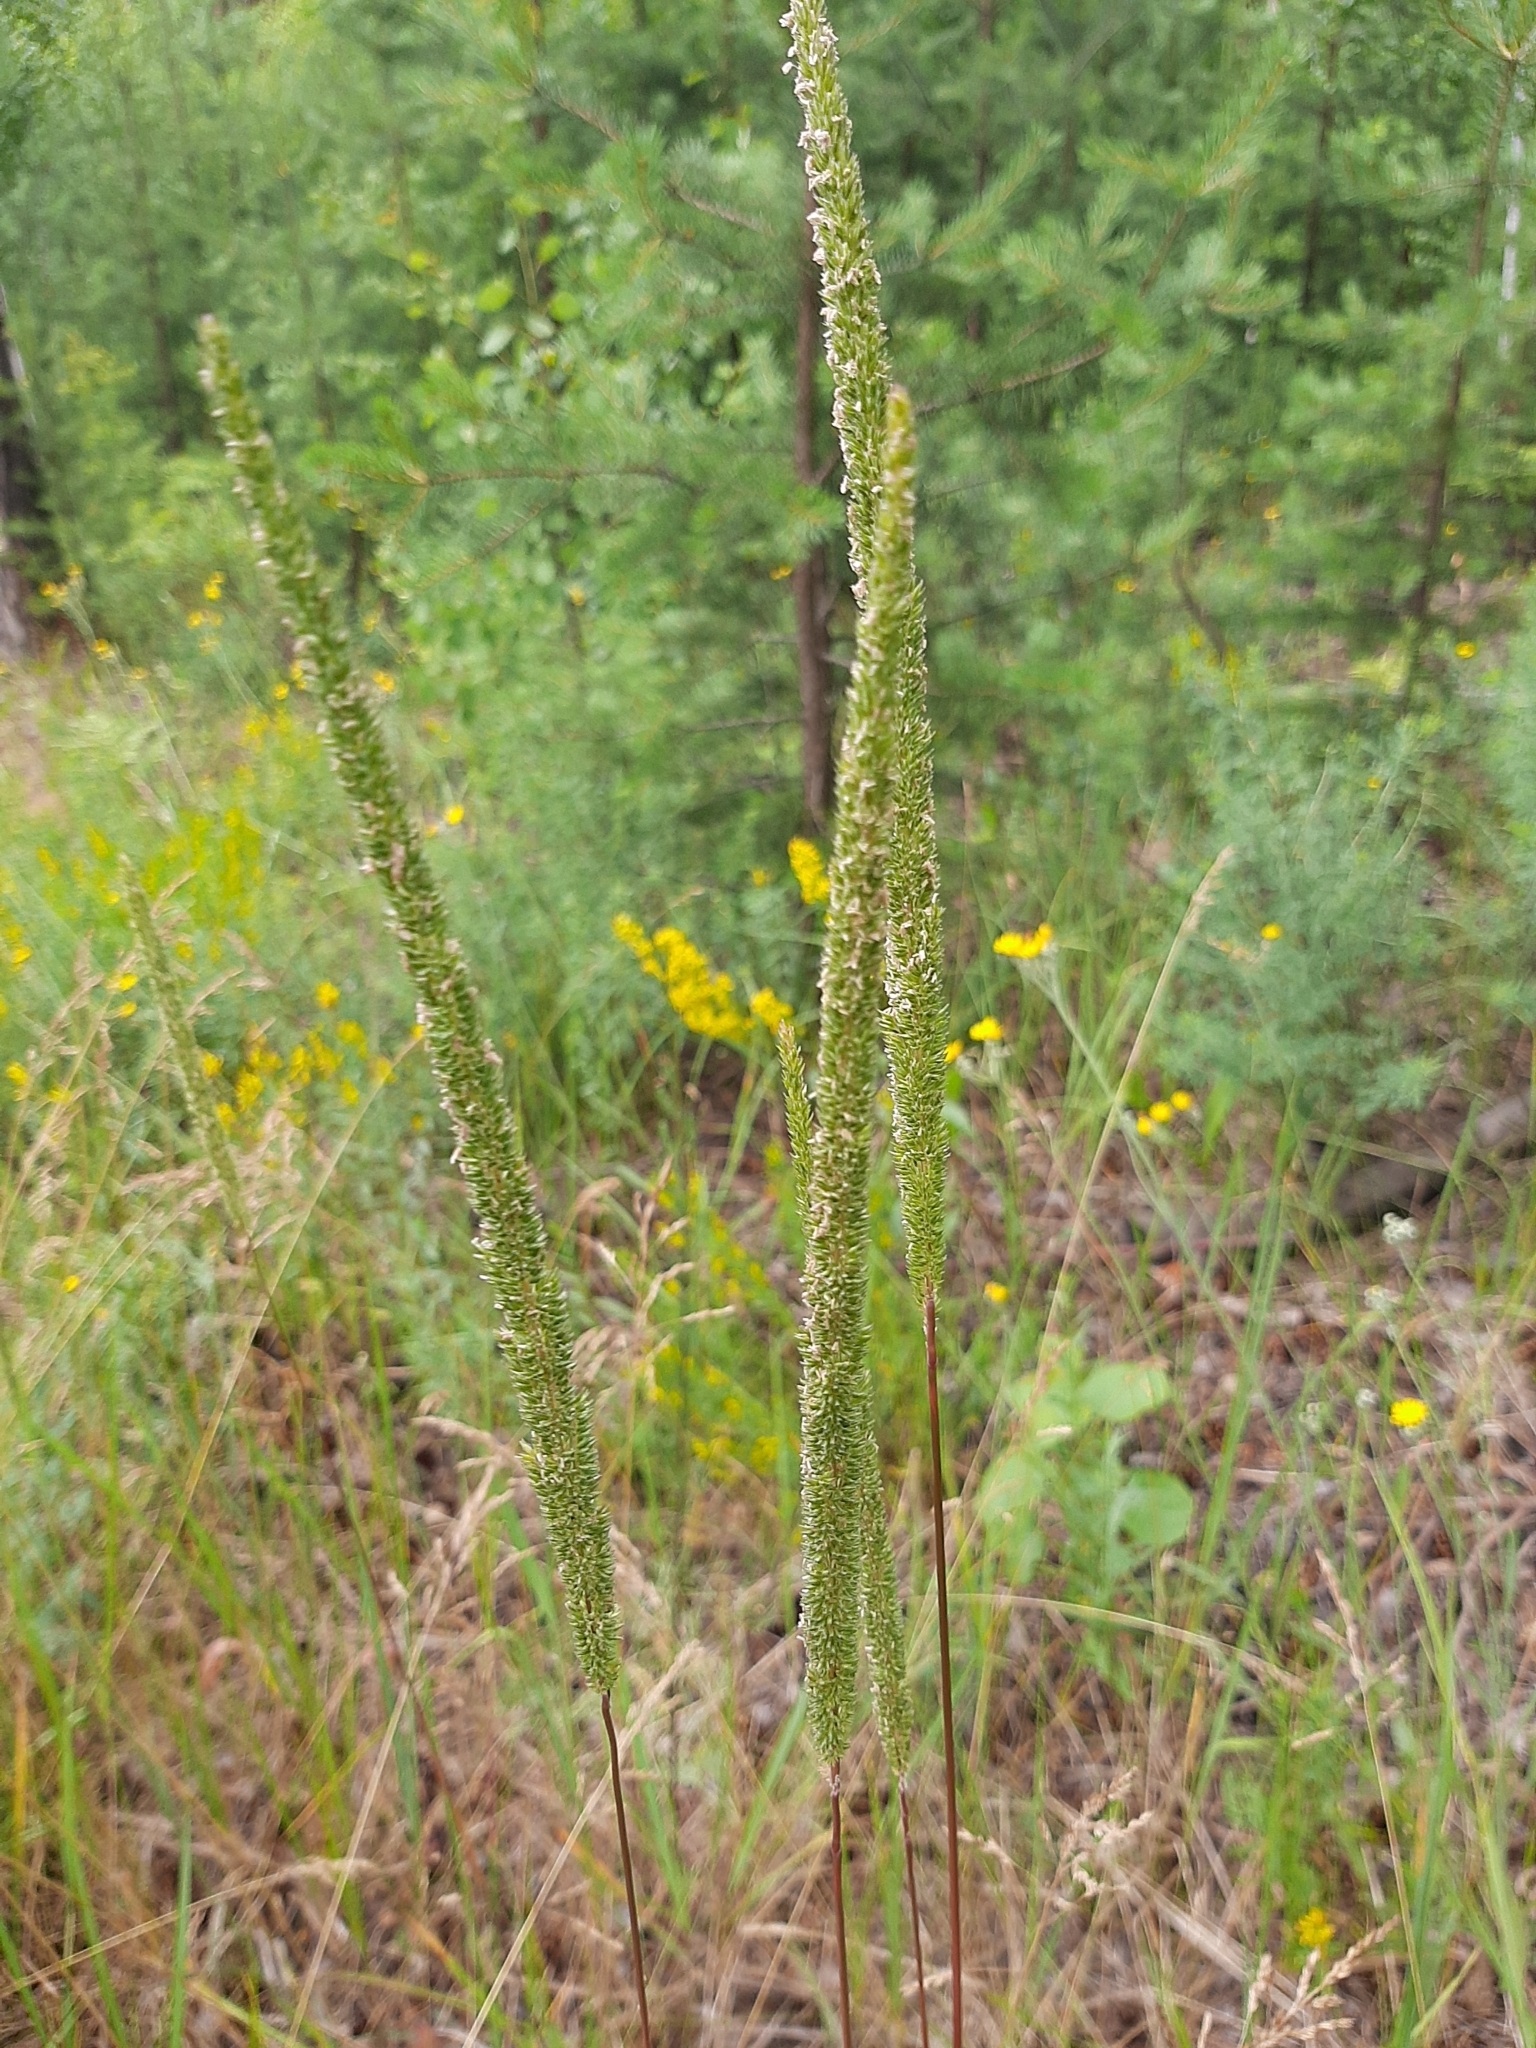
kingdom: Plantae
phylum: Tracheophyta
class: Liliopsida
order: Poales
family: Poaceae
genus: Phleum
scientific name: Phleum phleoides
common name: Purple-stem cat's-tail
